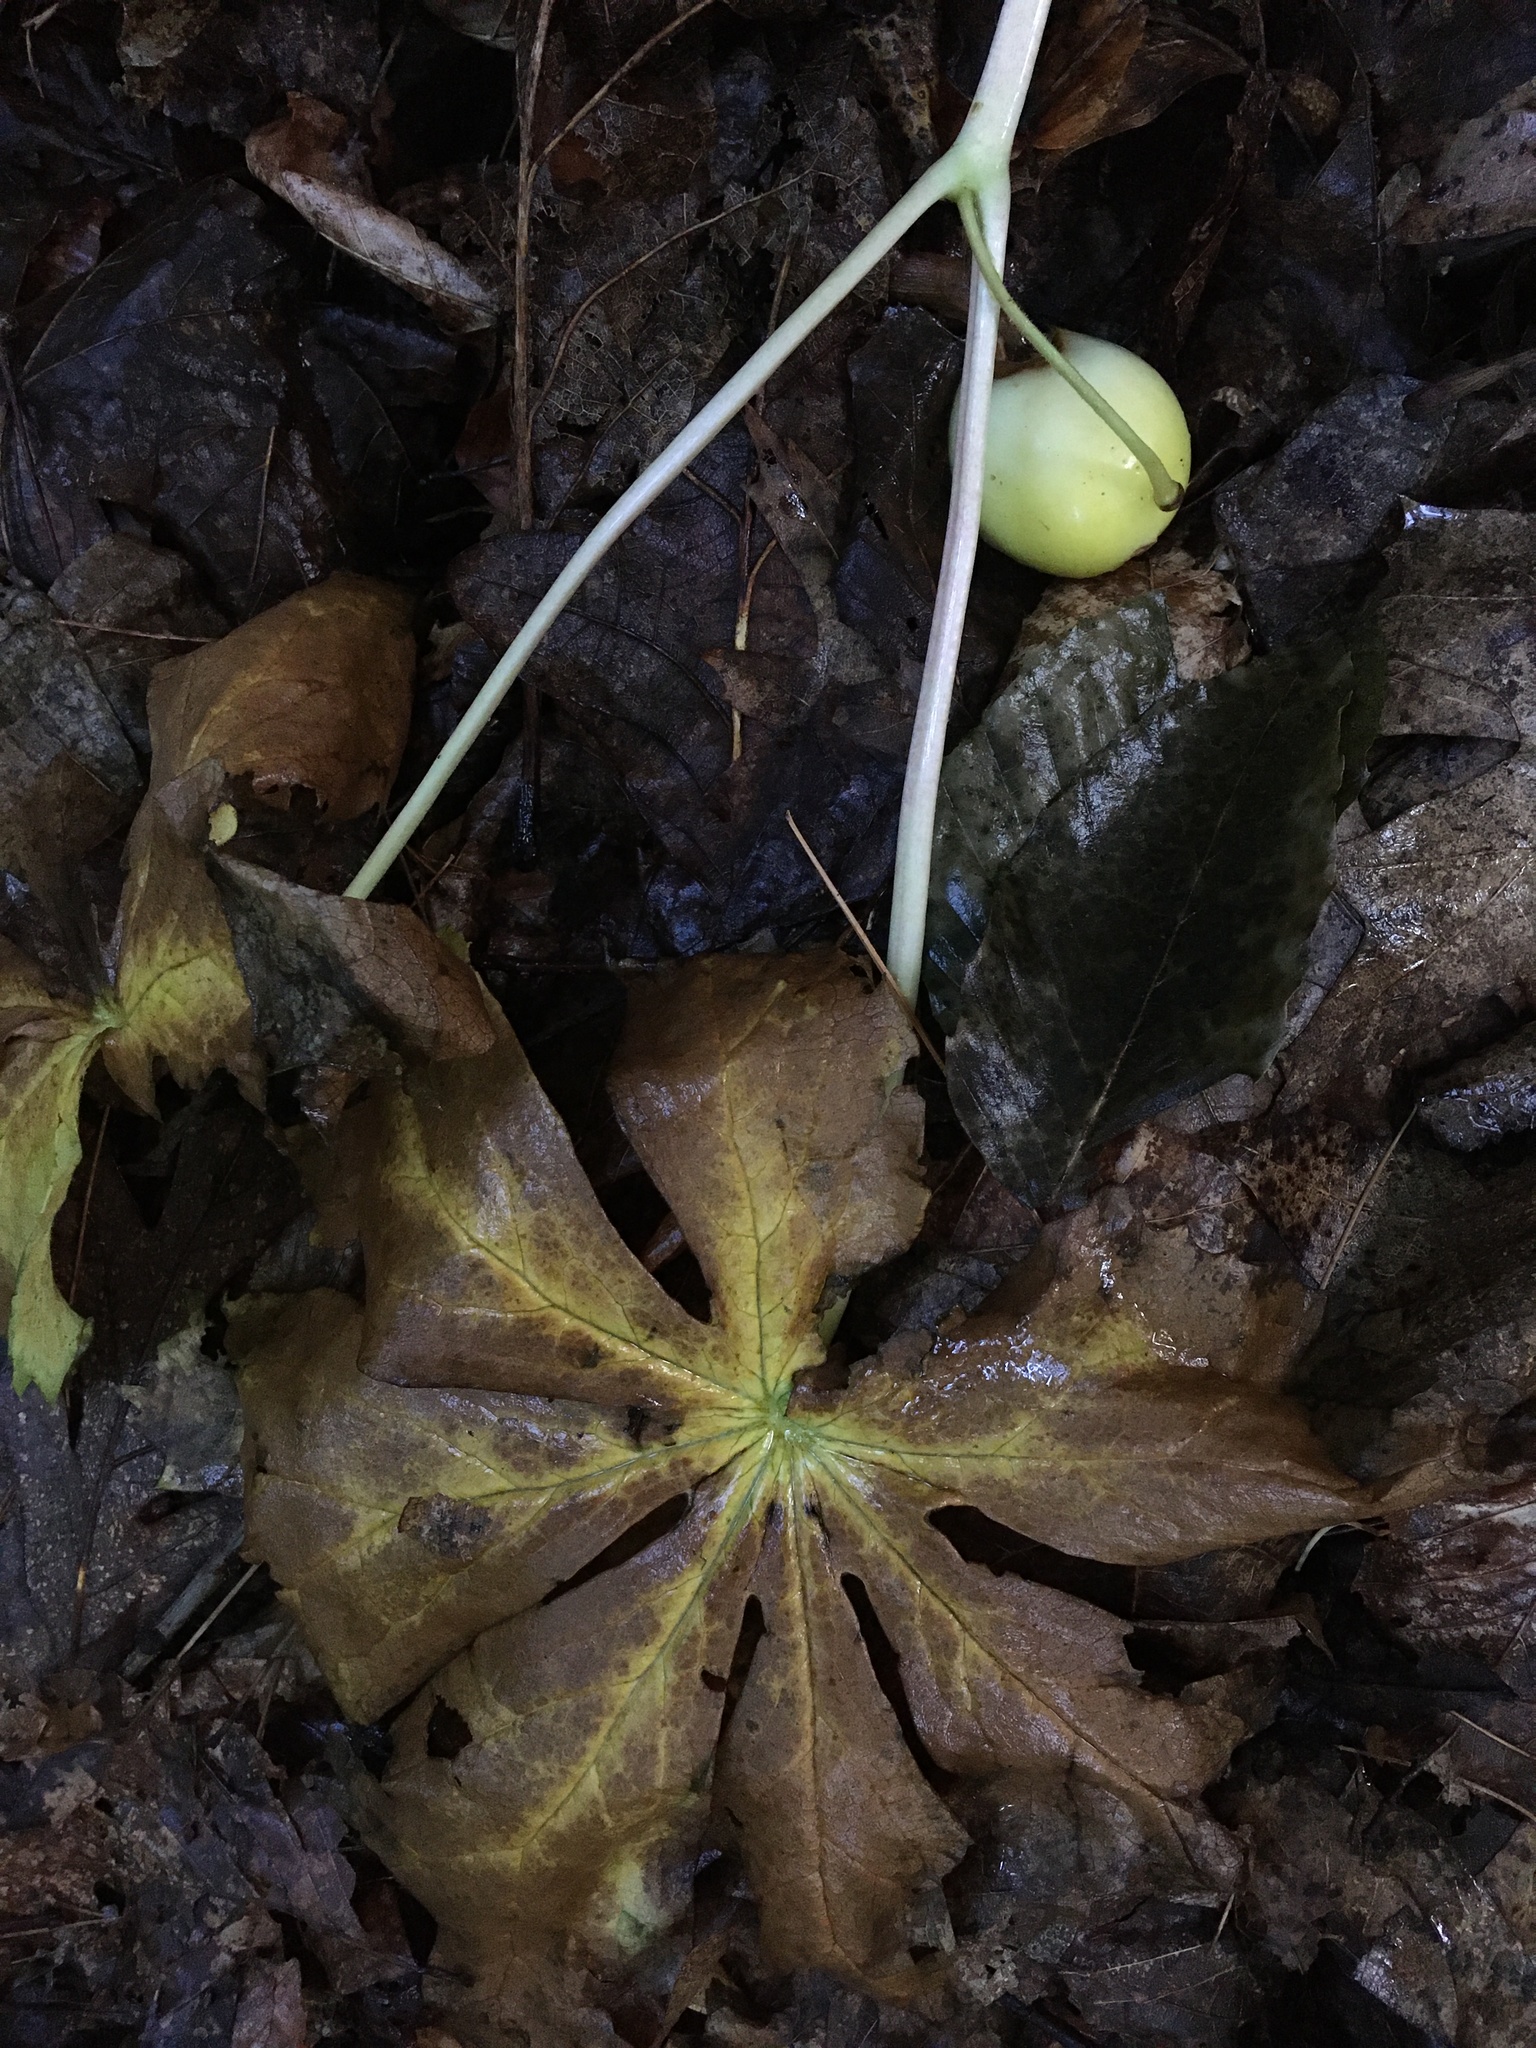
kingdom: Plantae
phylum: Tracheophyta
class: Magnoliopsida
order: Ranunculales
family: Berberidaceae
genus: Podophyllum
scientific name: Podophyllum peltatum
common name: Wild mandrake
